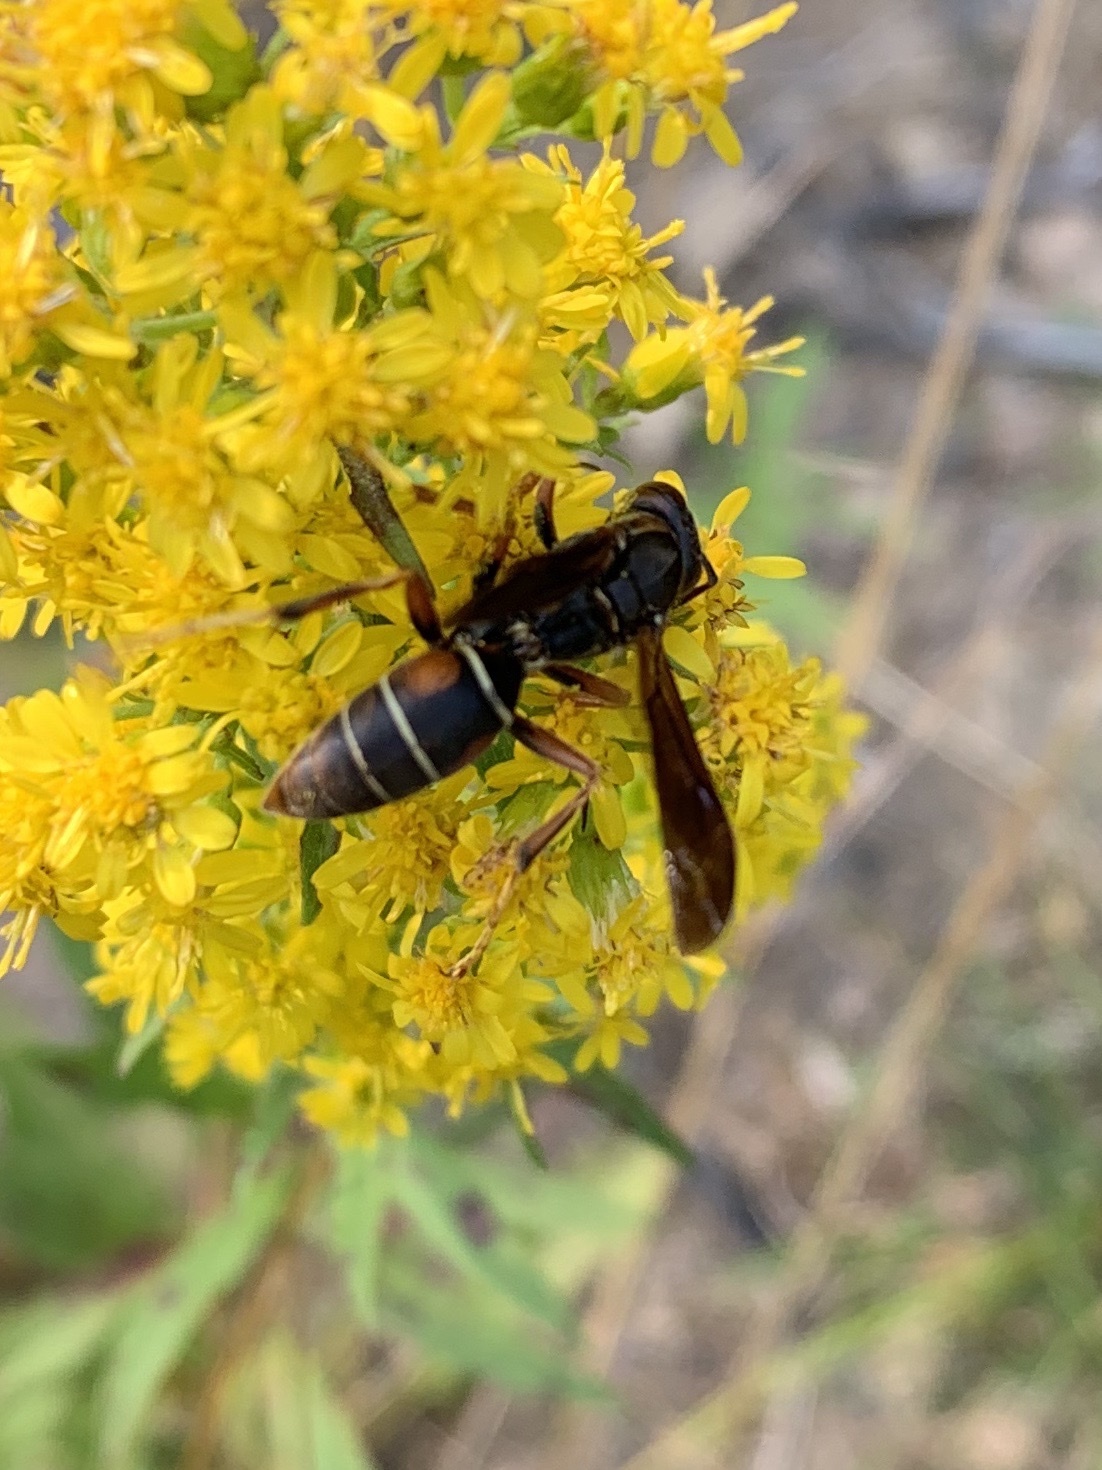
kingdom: Animalia
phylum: Arthropoda
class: Insecta
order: Hymenoptera
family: Eumenidae
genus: Polistes
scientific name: Polistes fuscatus
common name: Dark paper wasp
